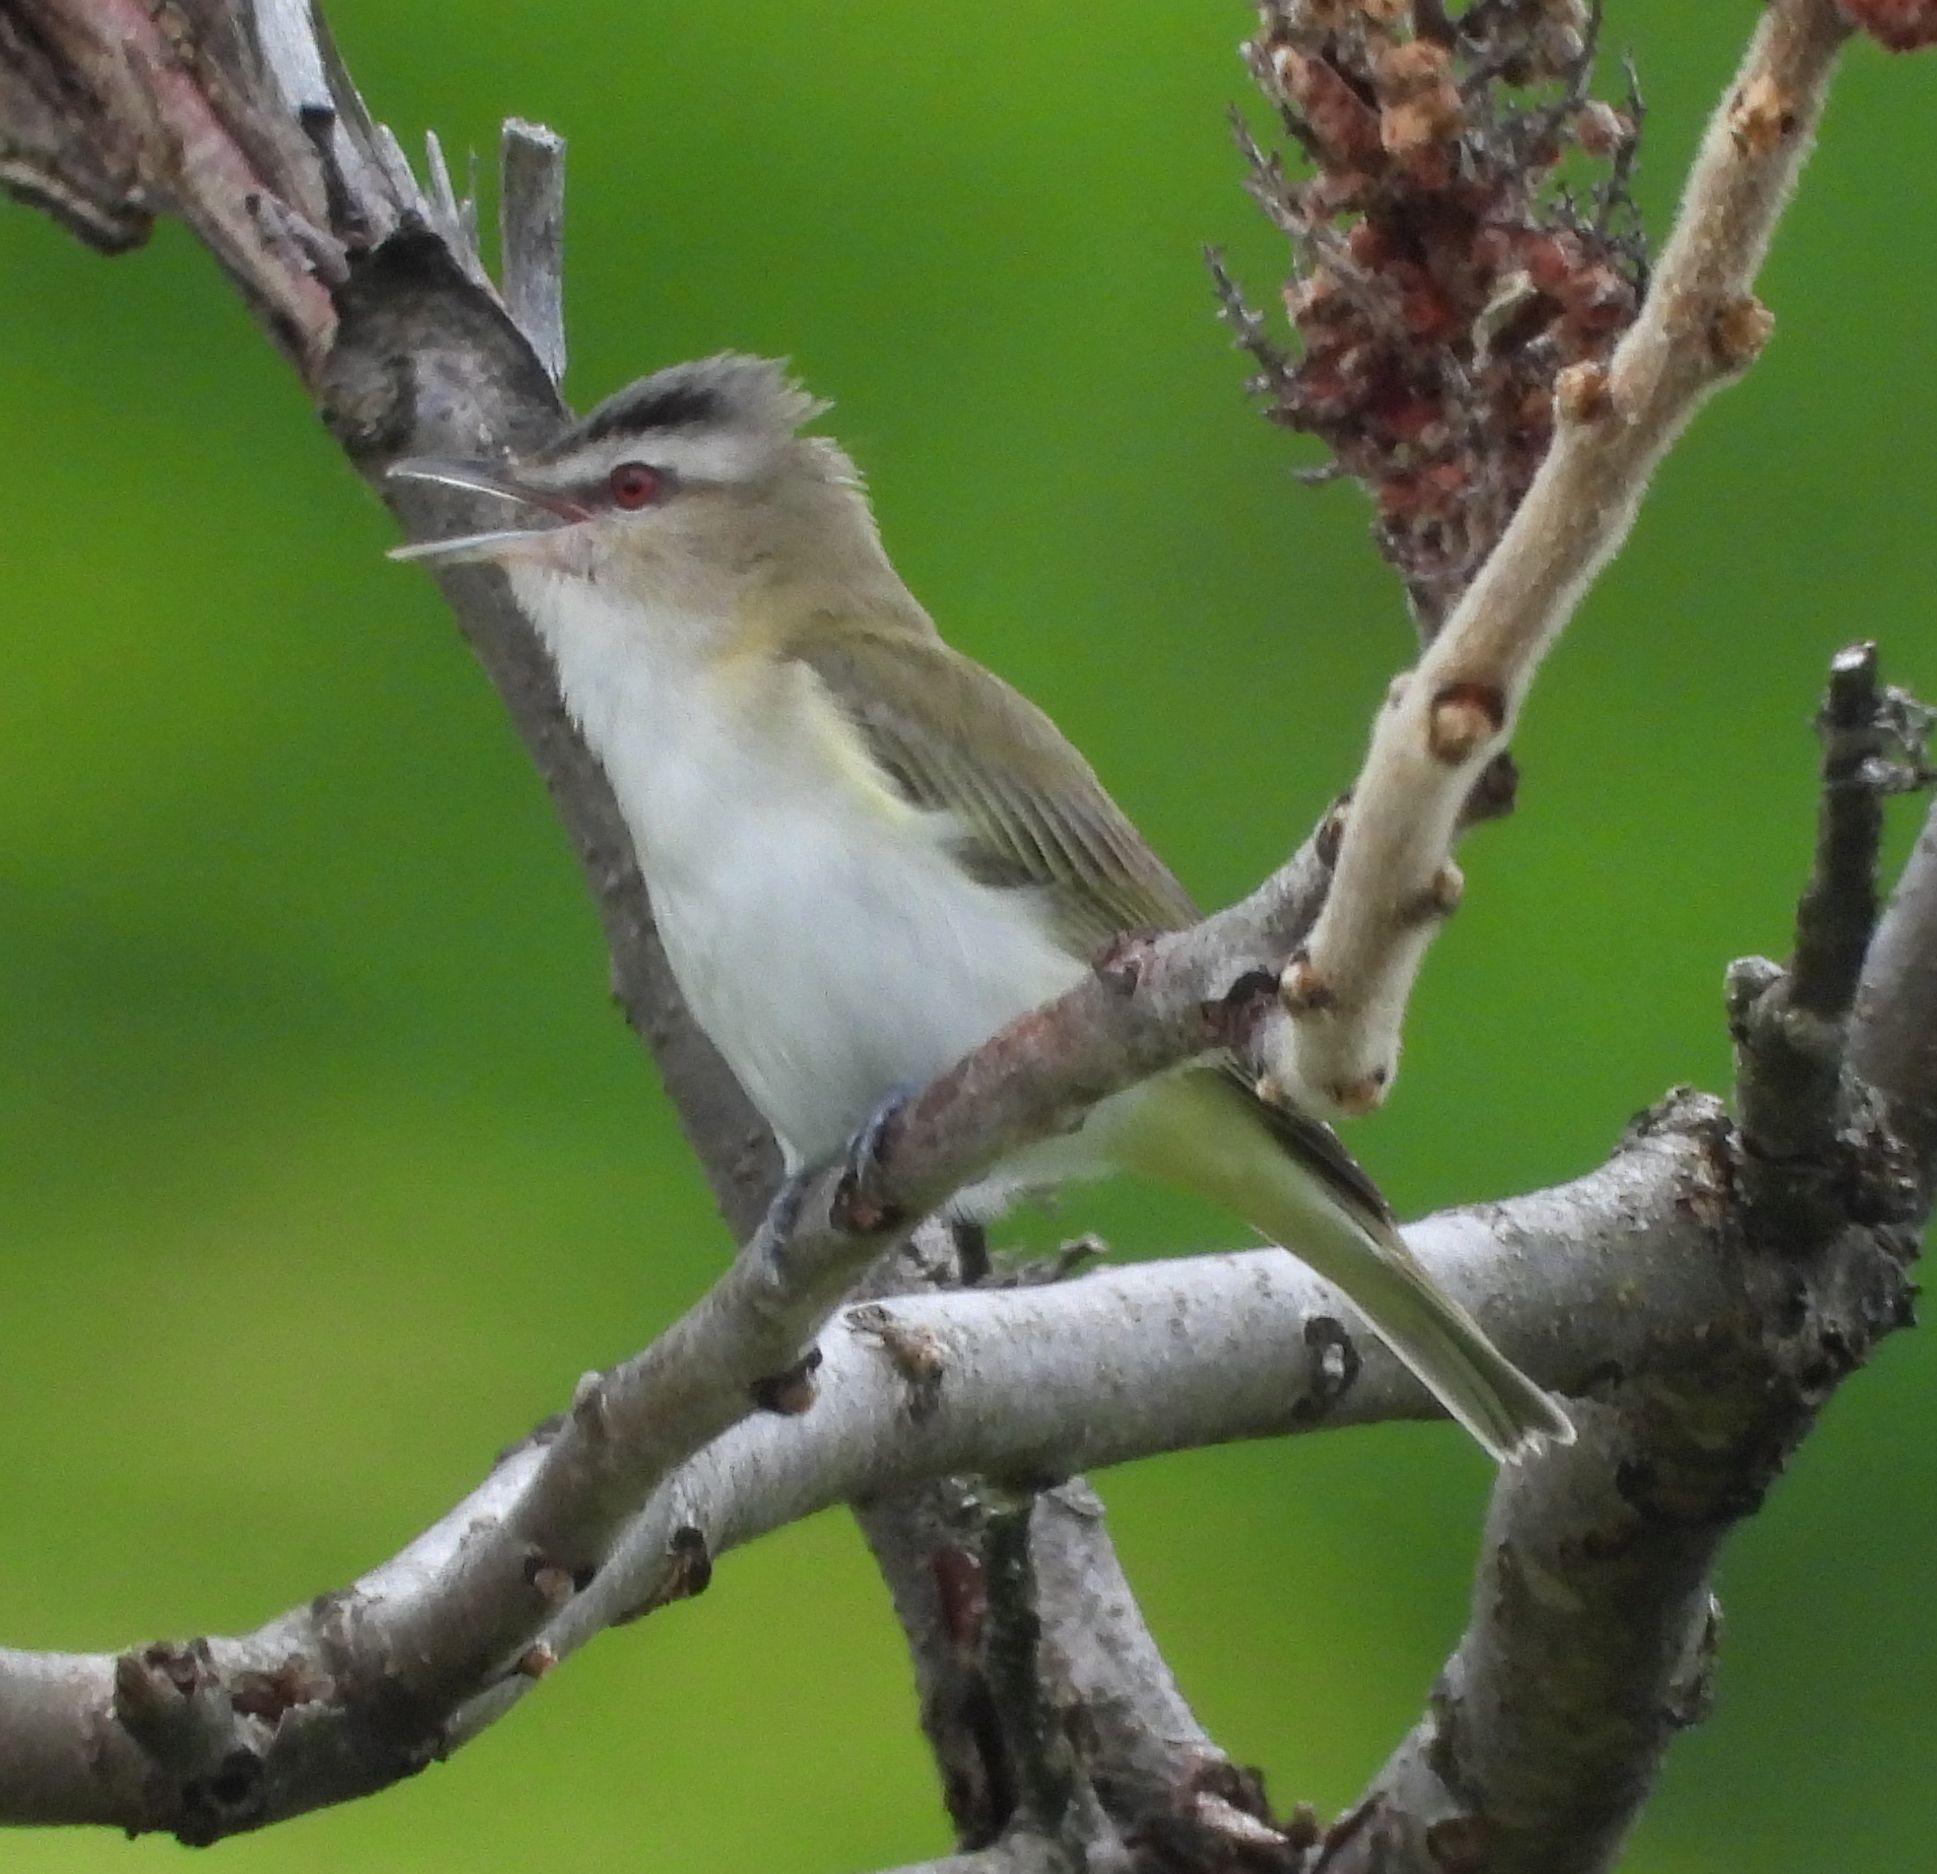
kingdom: Animalia
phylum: Chordata
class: Aves
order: Passeriformes
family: Vireonidae
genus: Vireo
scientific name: Vireo olivaceus
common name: Red-eyed vireo
